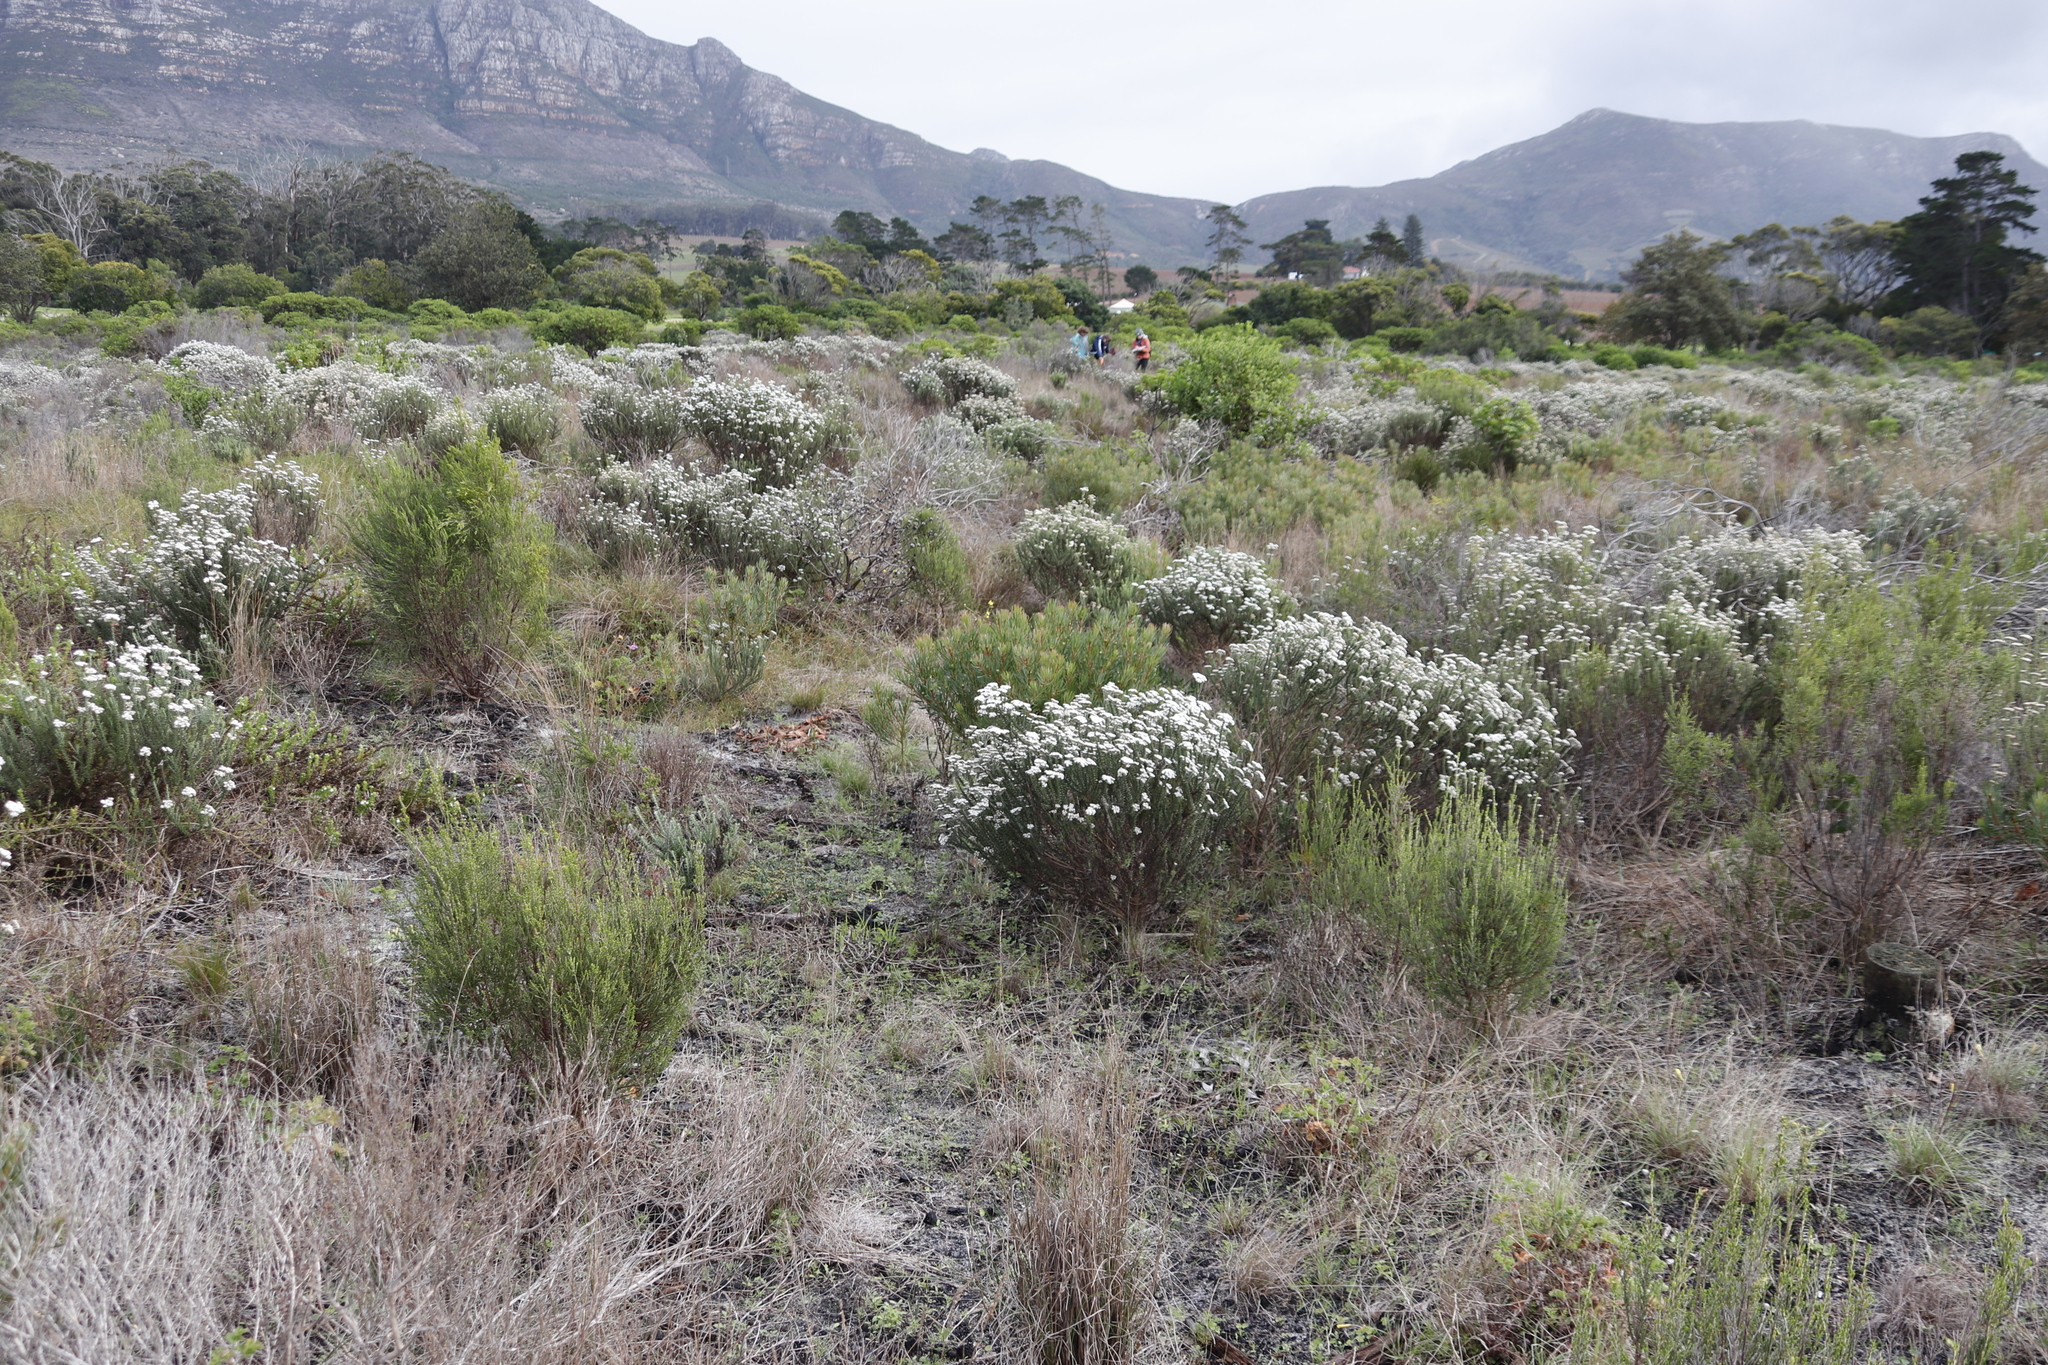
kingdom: Plantae
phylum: Tracheophyta
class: Magnoliopsida
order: Proteales
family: Proteaceae
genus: Protea
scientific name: Protea scolymocephala
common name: Thistle sugarbush
